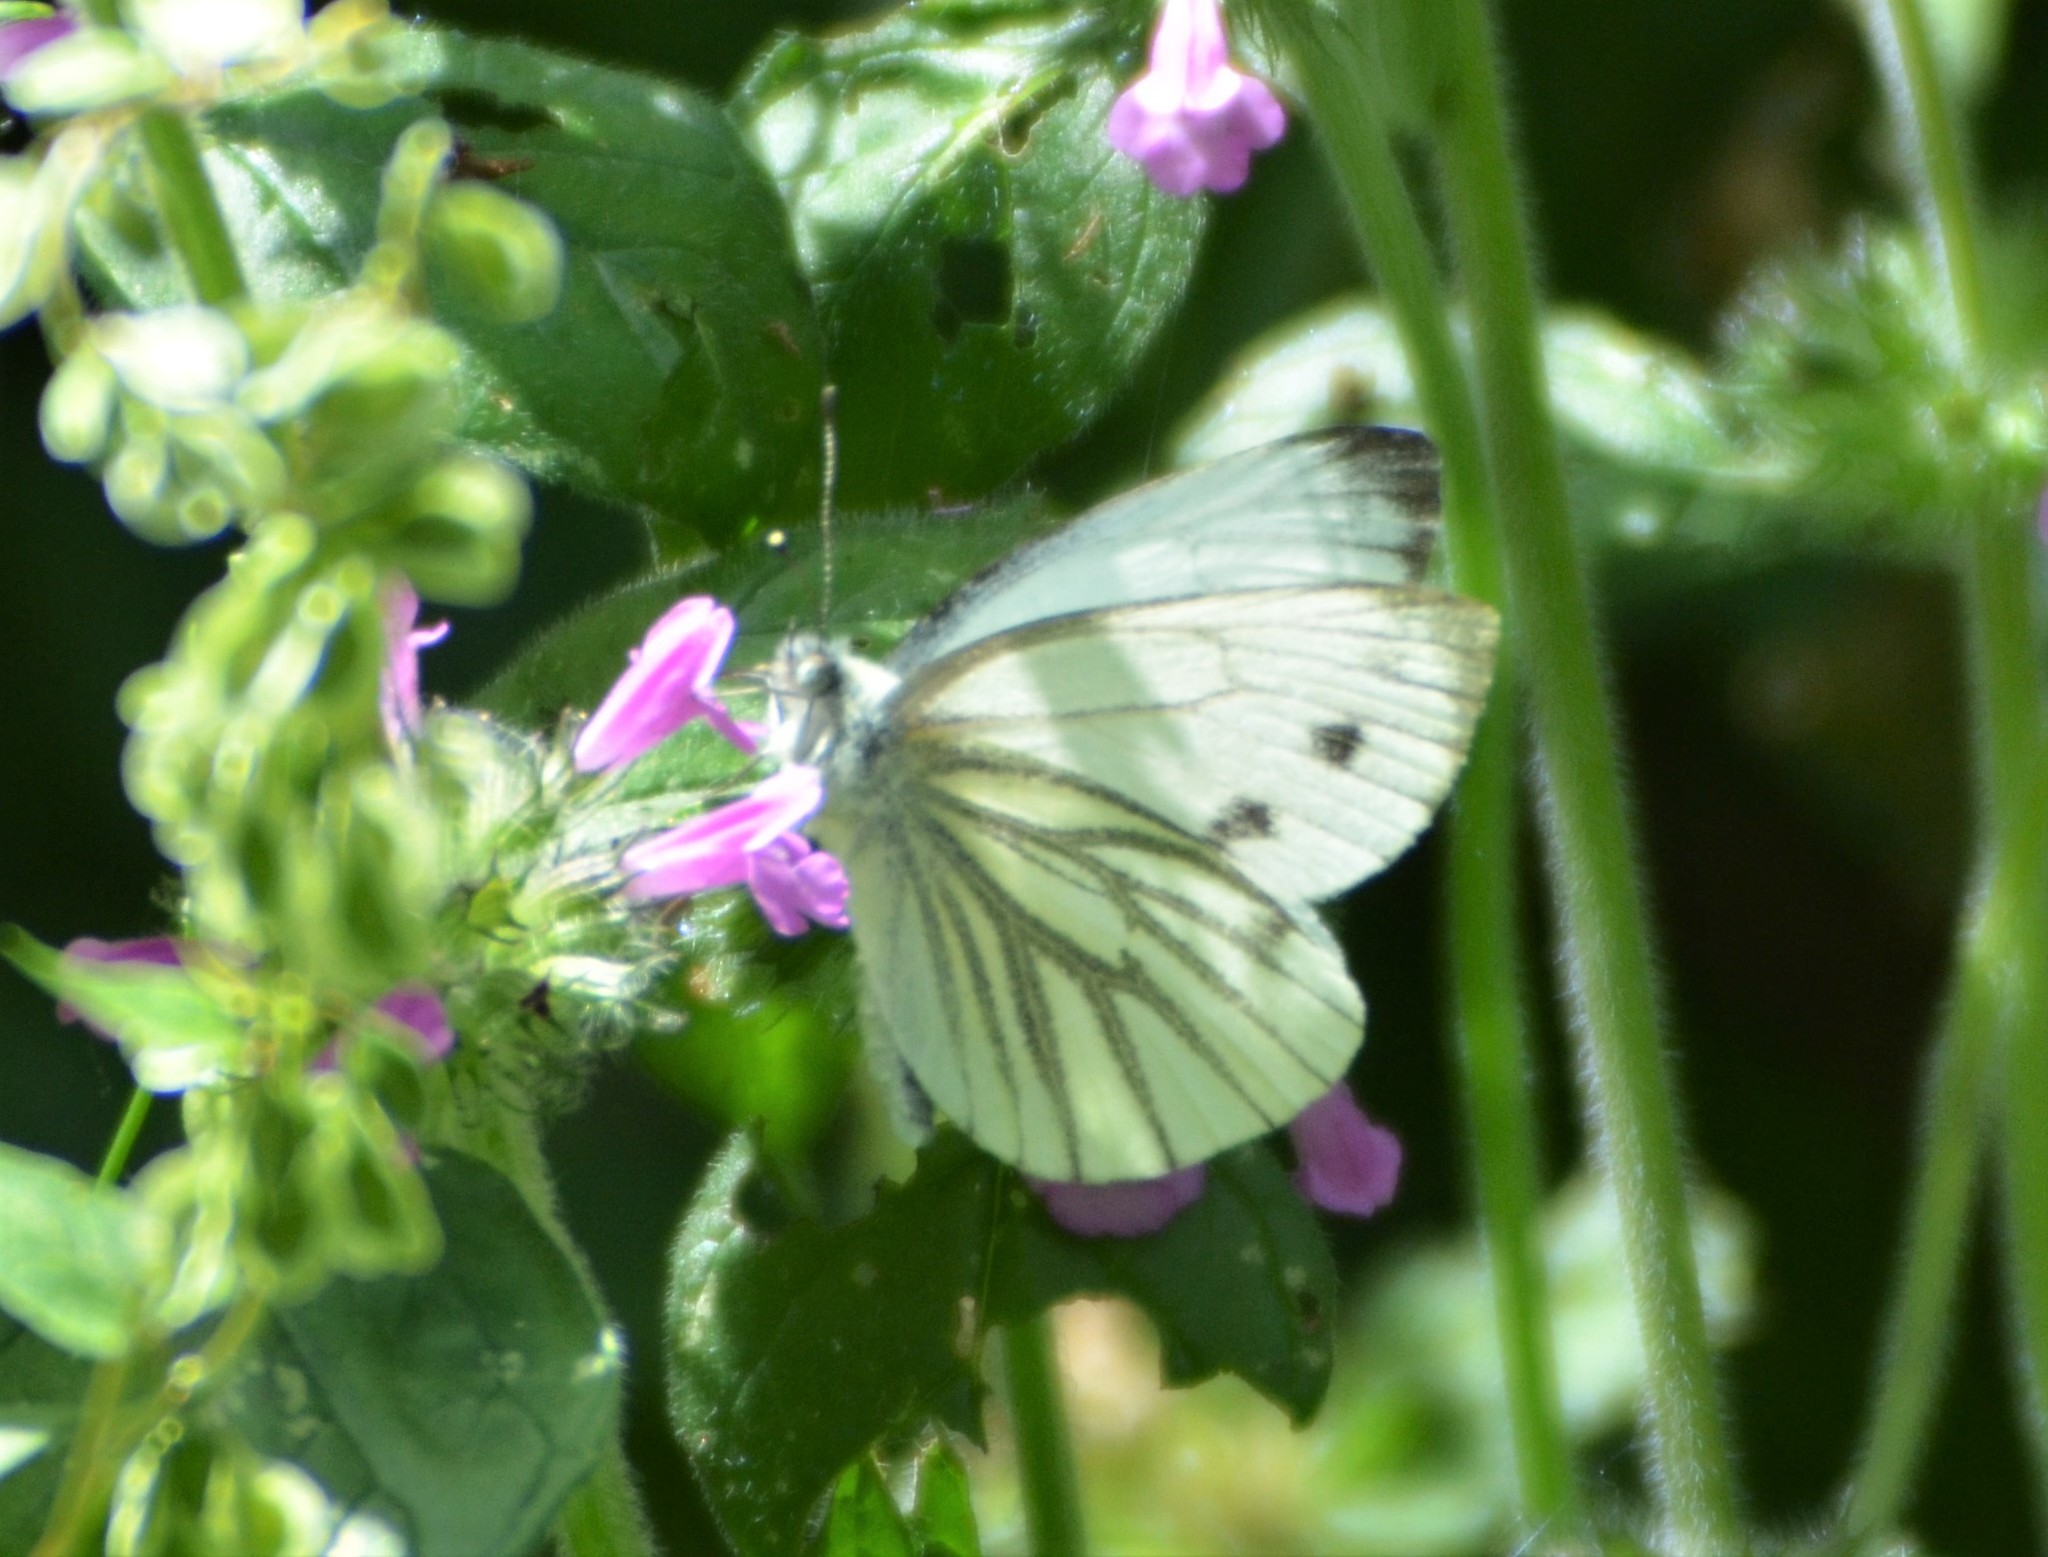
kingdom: Animalia
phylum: Arthropoda
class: Insecta
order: Lepidoptera
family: Pieridae
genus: Pieris
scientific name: Pieris napi
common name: Green-veined white
